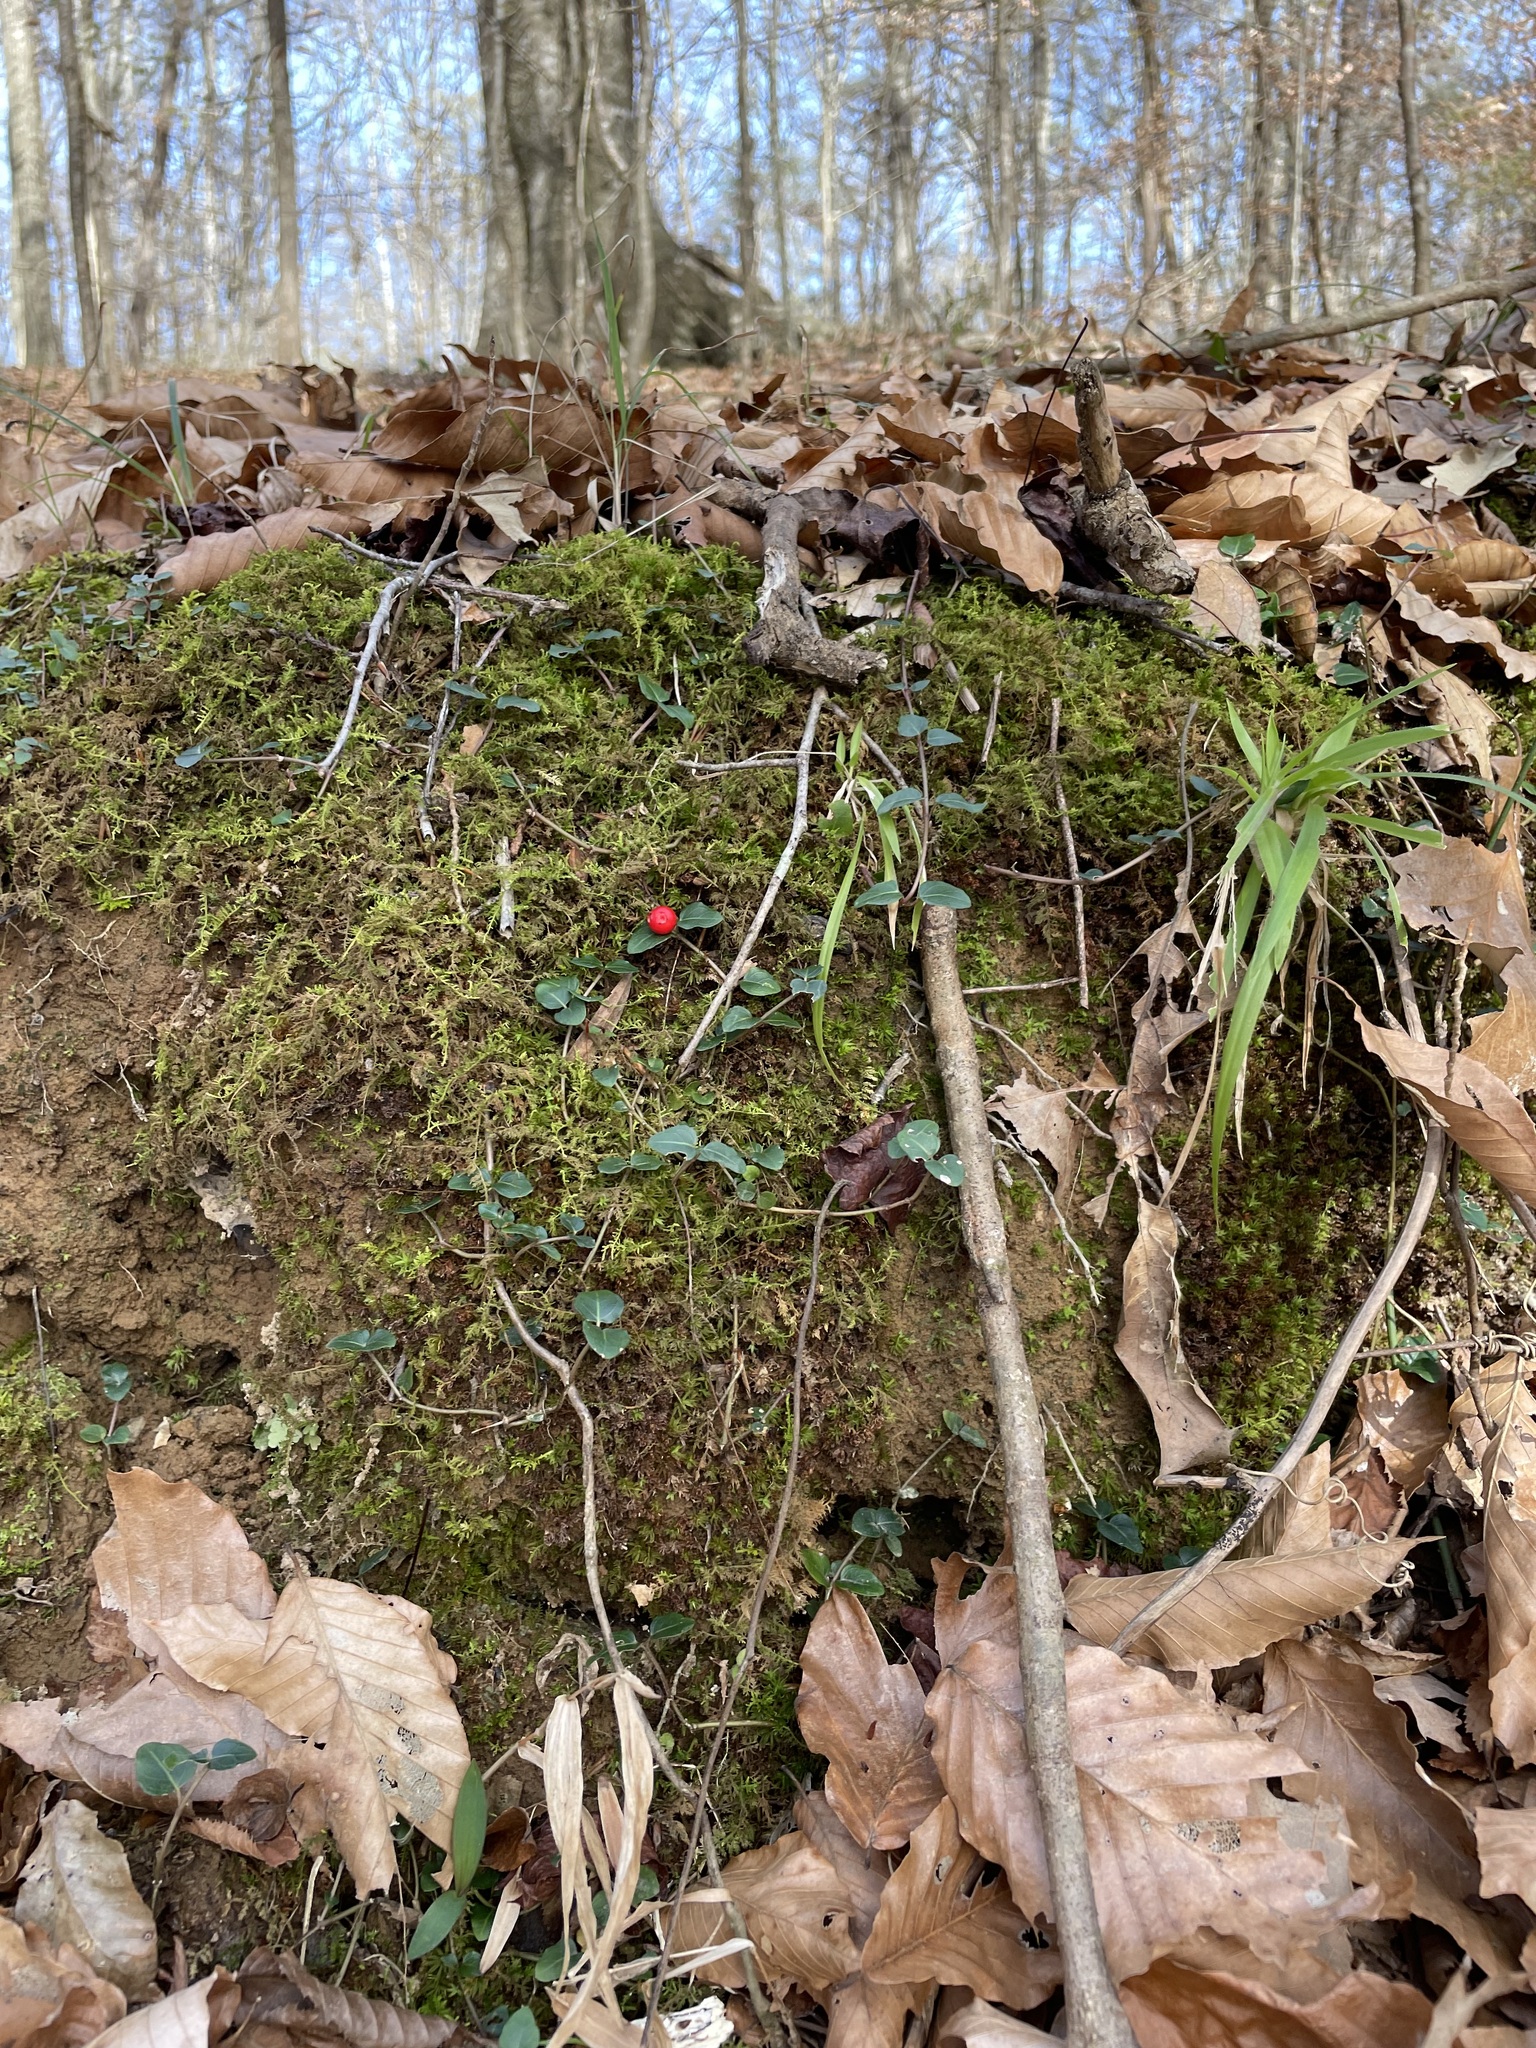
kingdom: Plantae
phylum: Tracheophyta
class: Magnoliopsida
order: Gentianales
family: Rubiaceae
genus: Mitchella
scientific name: Mitchella repens
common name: Partridge-berry
